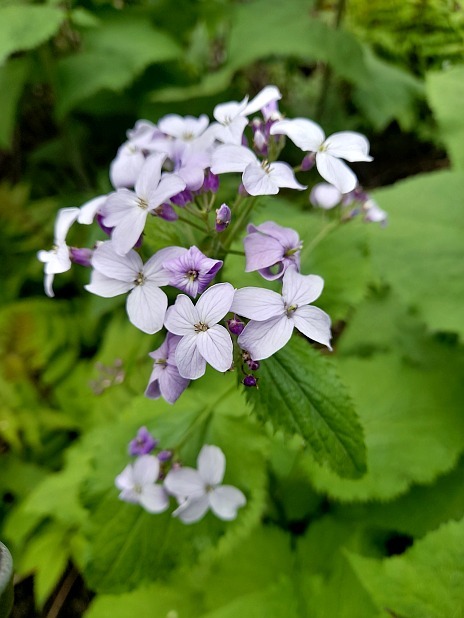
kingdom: Plantae
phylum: Tracheophyta
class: Magnoliopsida
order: Brassicales
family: Brassicaceae
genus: Lunaria
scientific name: Lunaria rediviva
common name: Perennial honesty
